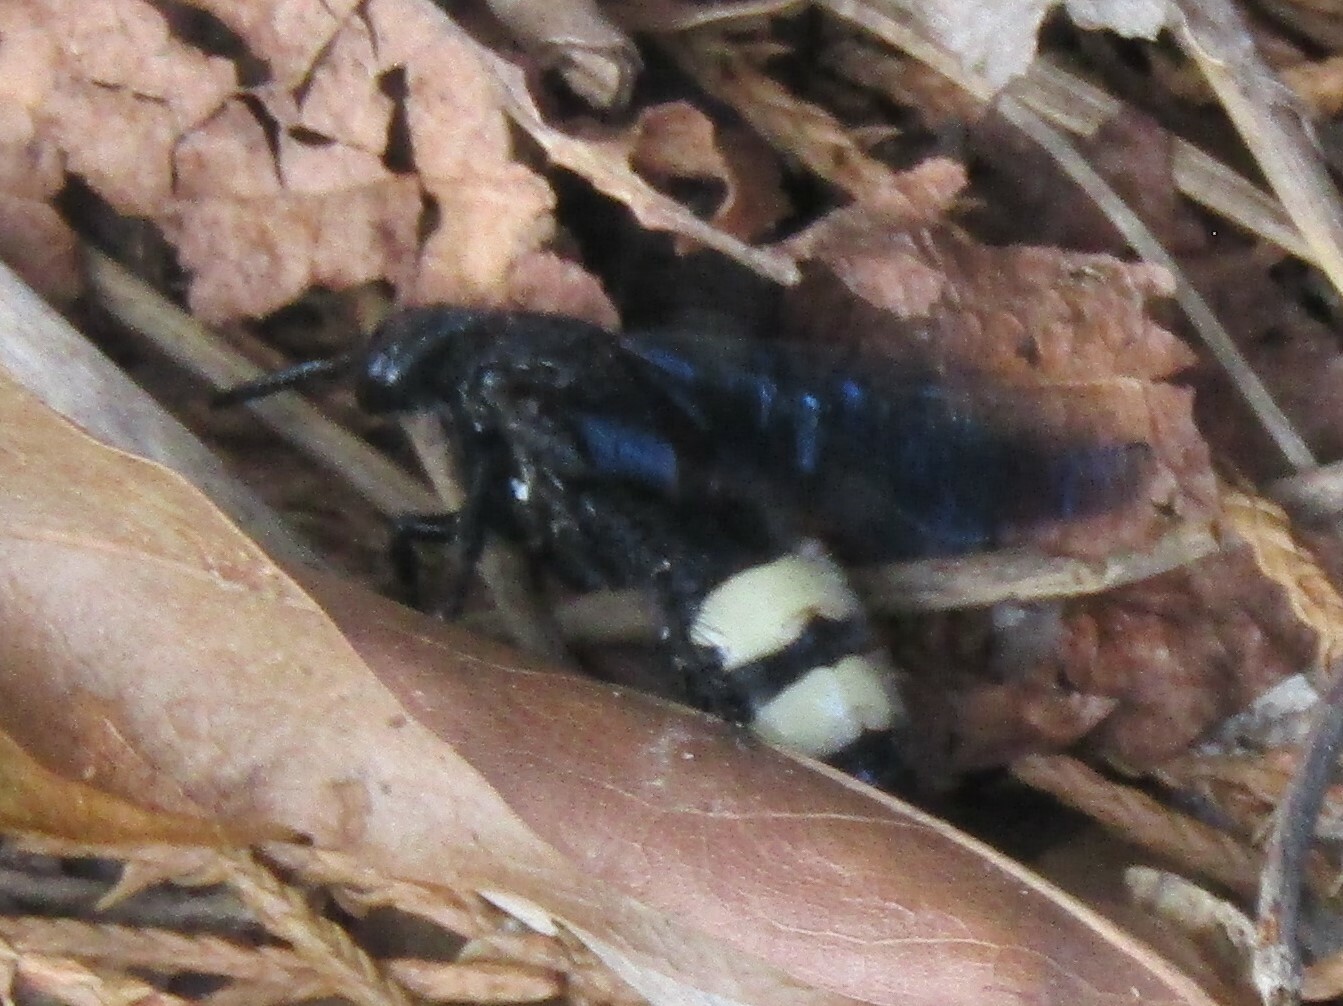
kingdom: Animalia
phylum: Arthropoda
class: Insecta
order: Hymenoptera
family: Scoliidae
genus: Scolia
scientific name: Scolia bicincta
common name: Double-banded scoliid wasp
